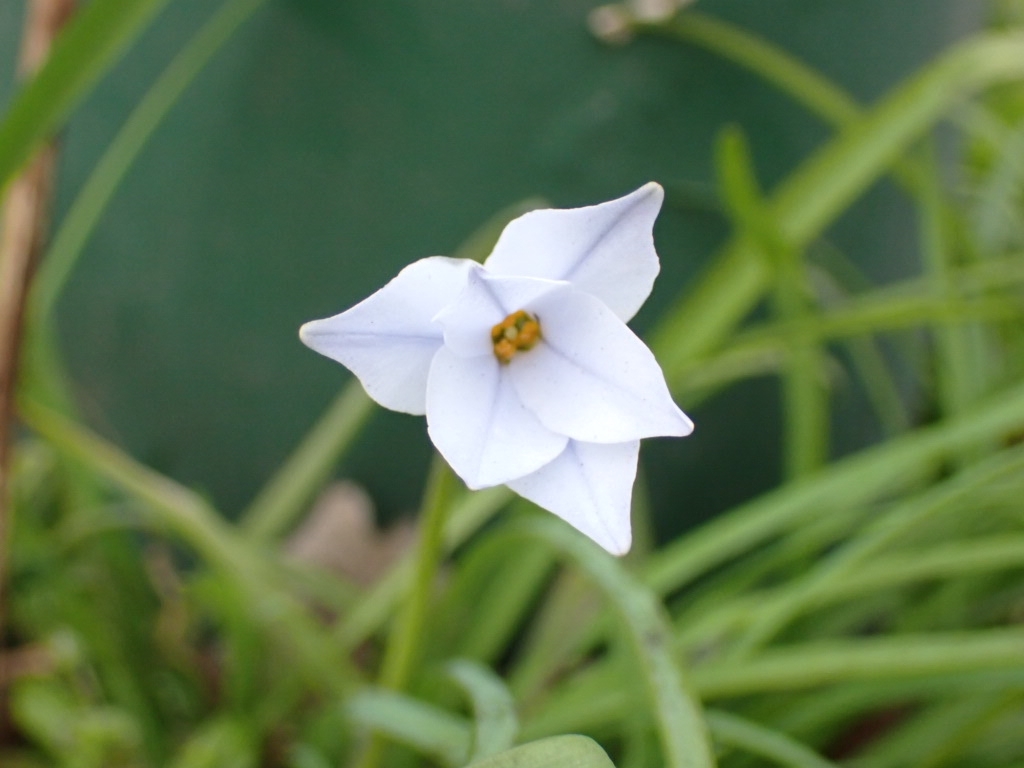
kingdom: Plantae
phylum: Tracheophyta
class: Liliopsida
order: Asparagales
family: Amaryllidaceae
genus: Ipheion
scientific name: Ipheion uniflorum
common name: Spring starflower
